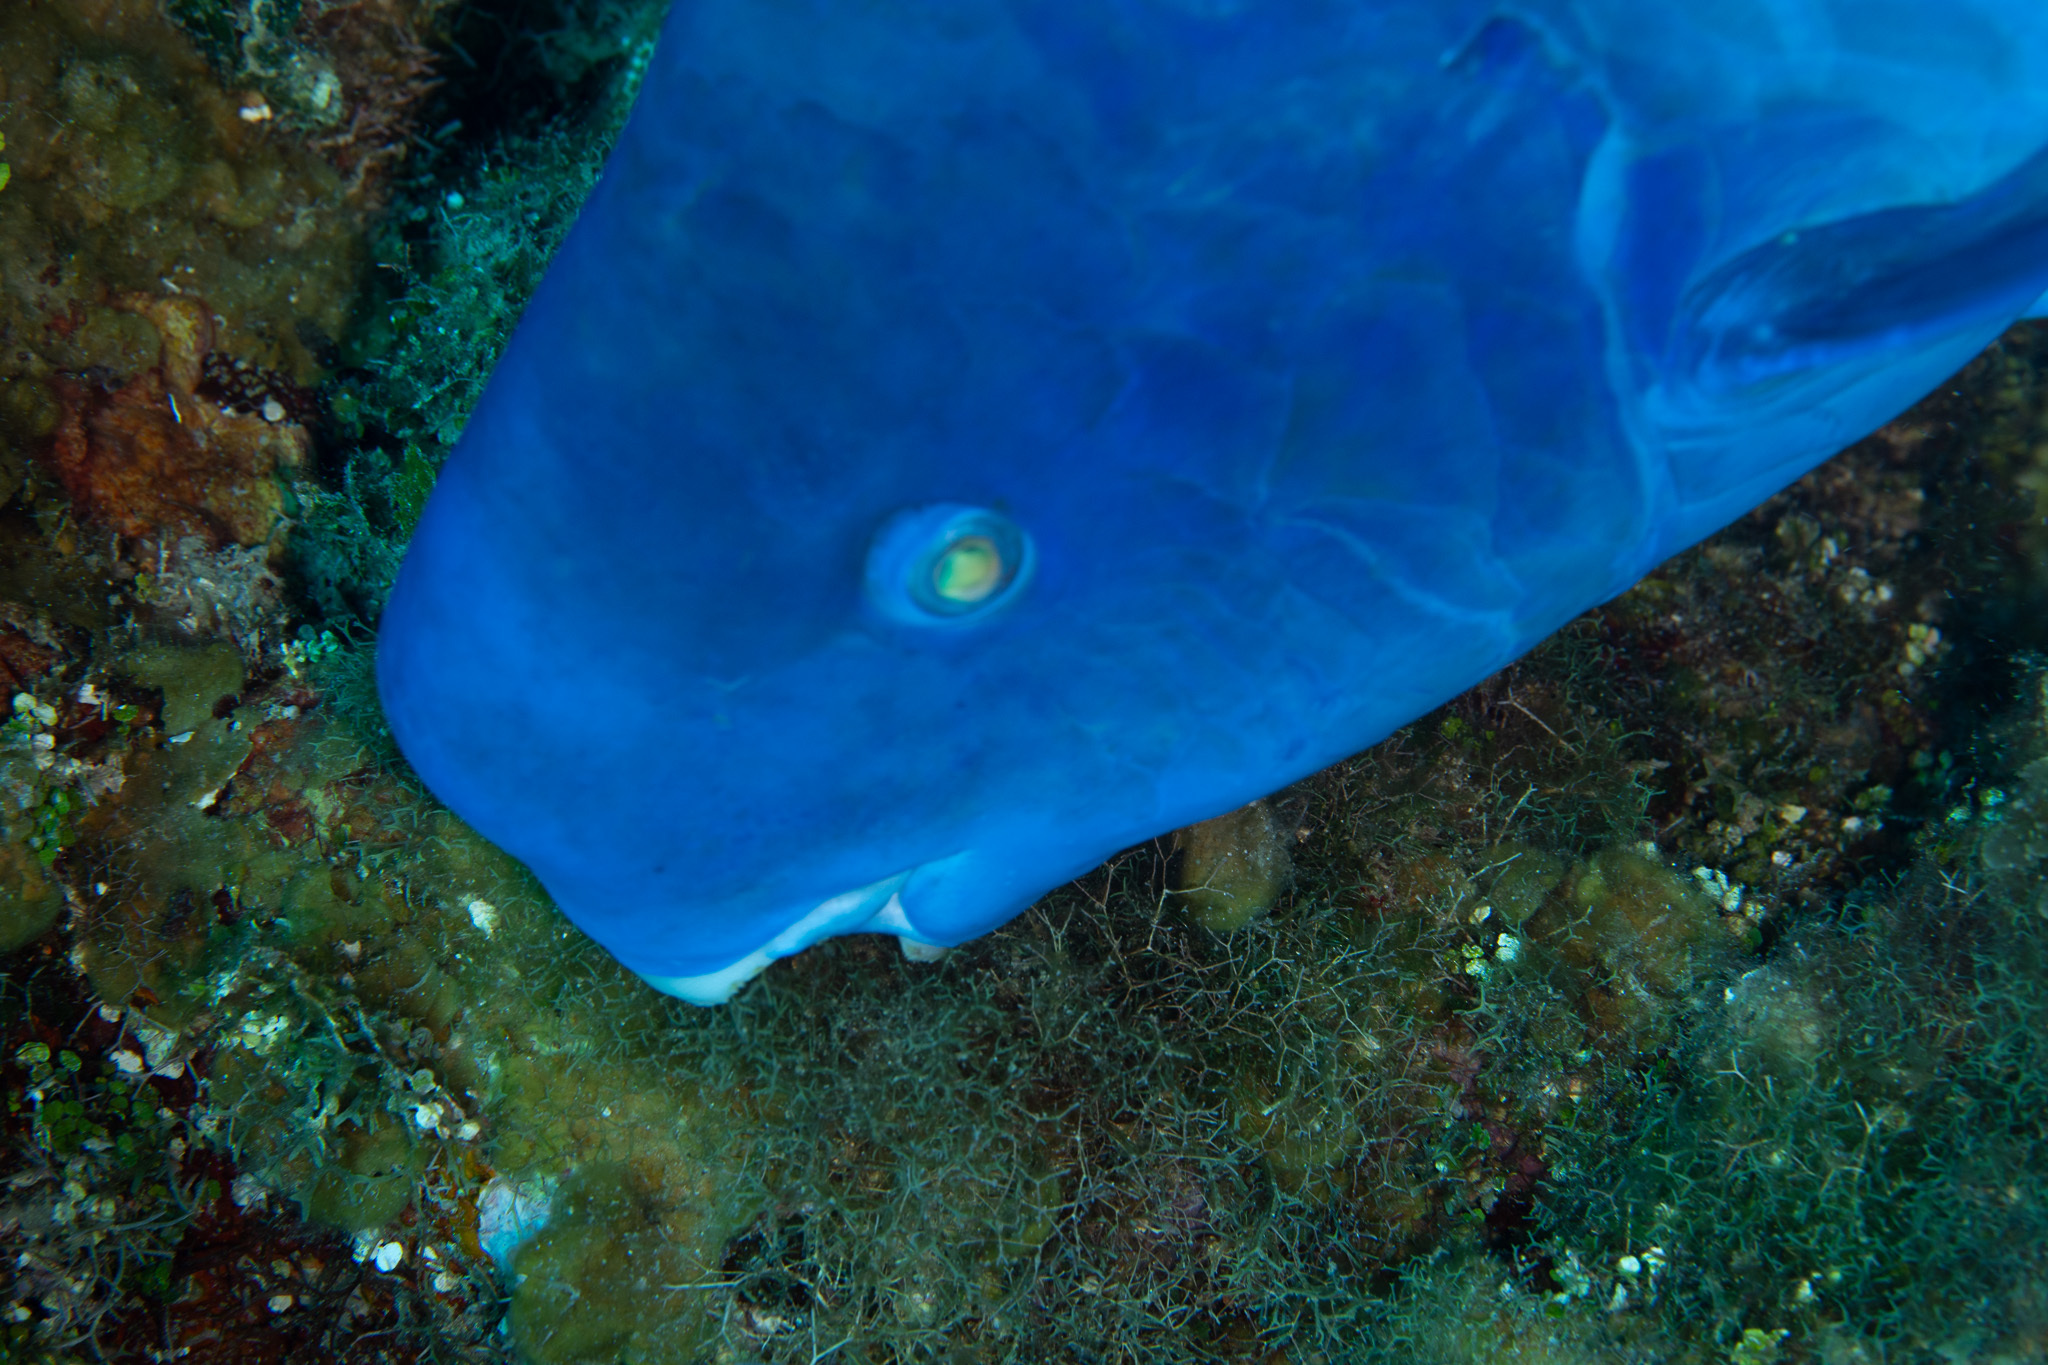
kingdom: Animalia
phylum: Chordata
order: Perciformes
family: Scaridae
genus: Scarus
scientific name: Scarus coeruleus
